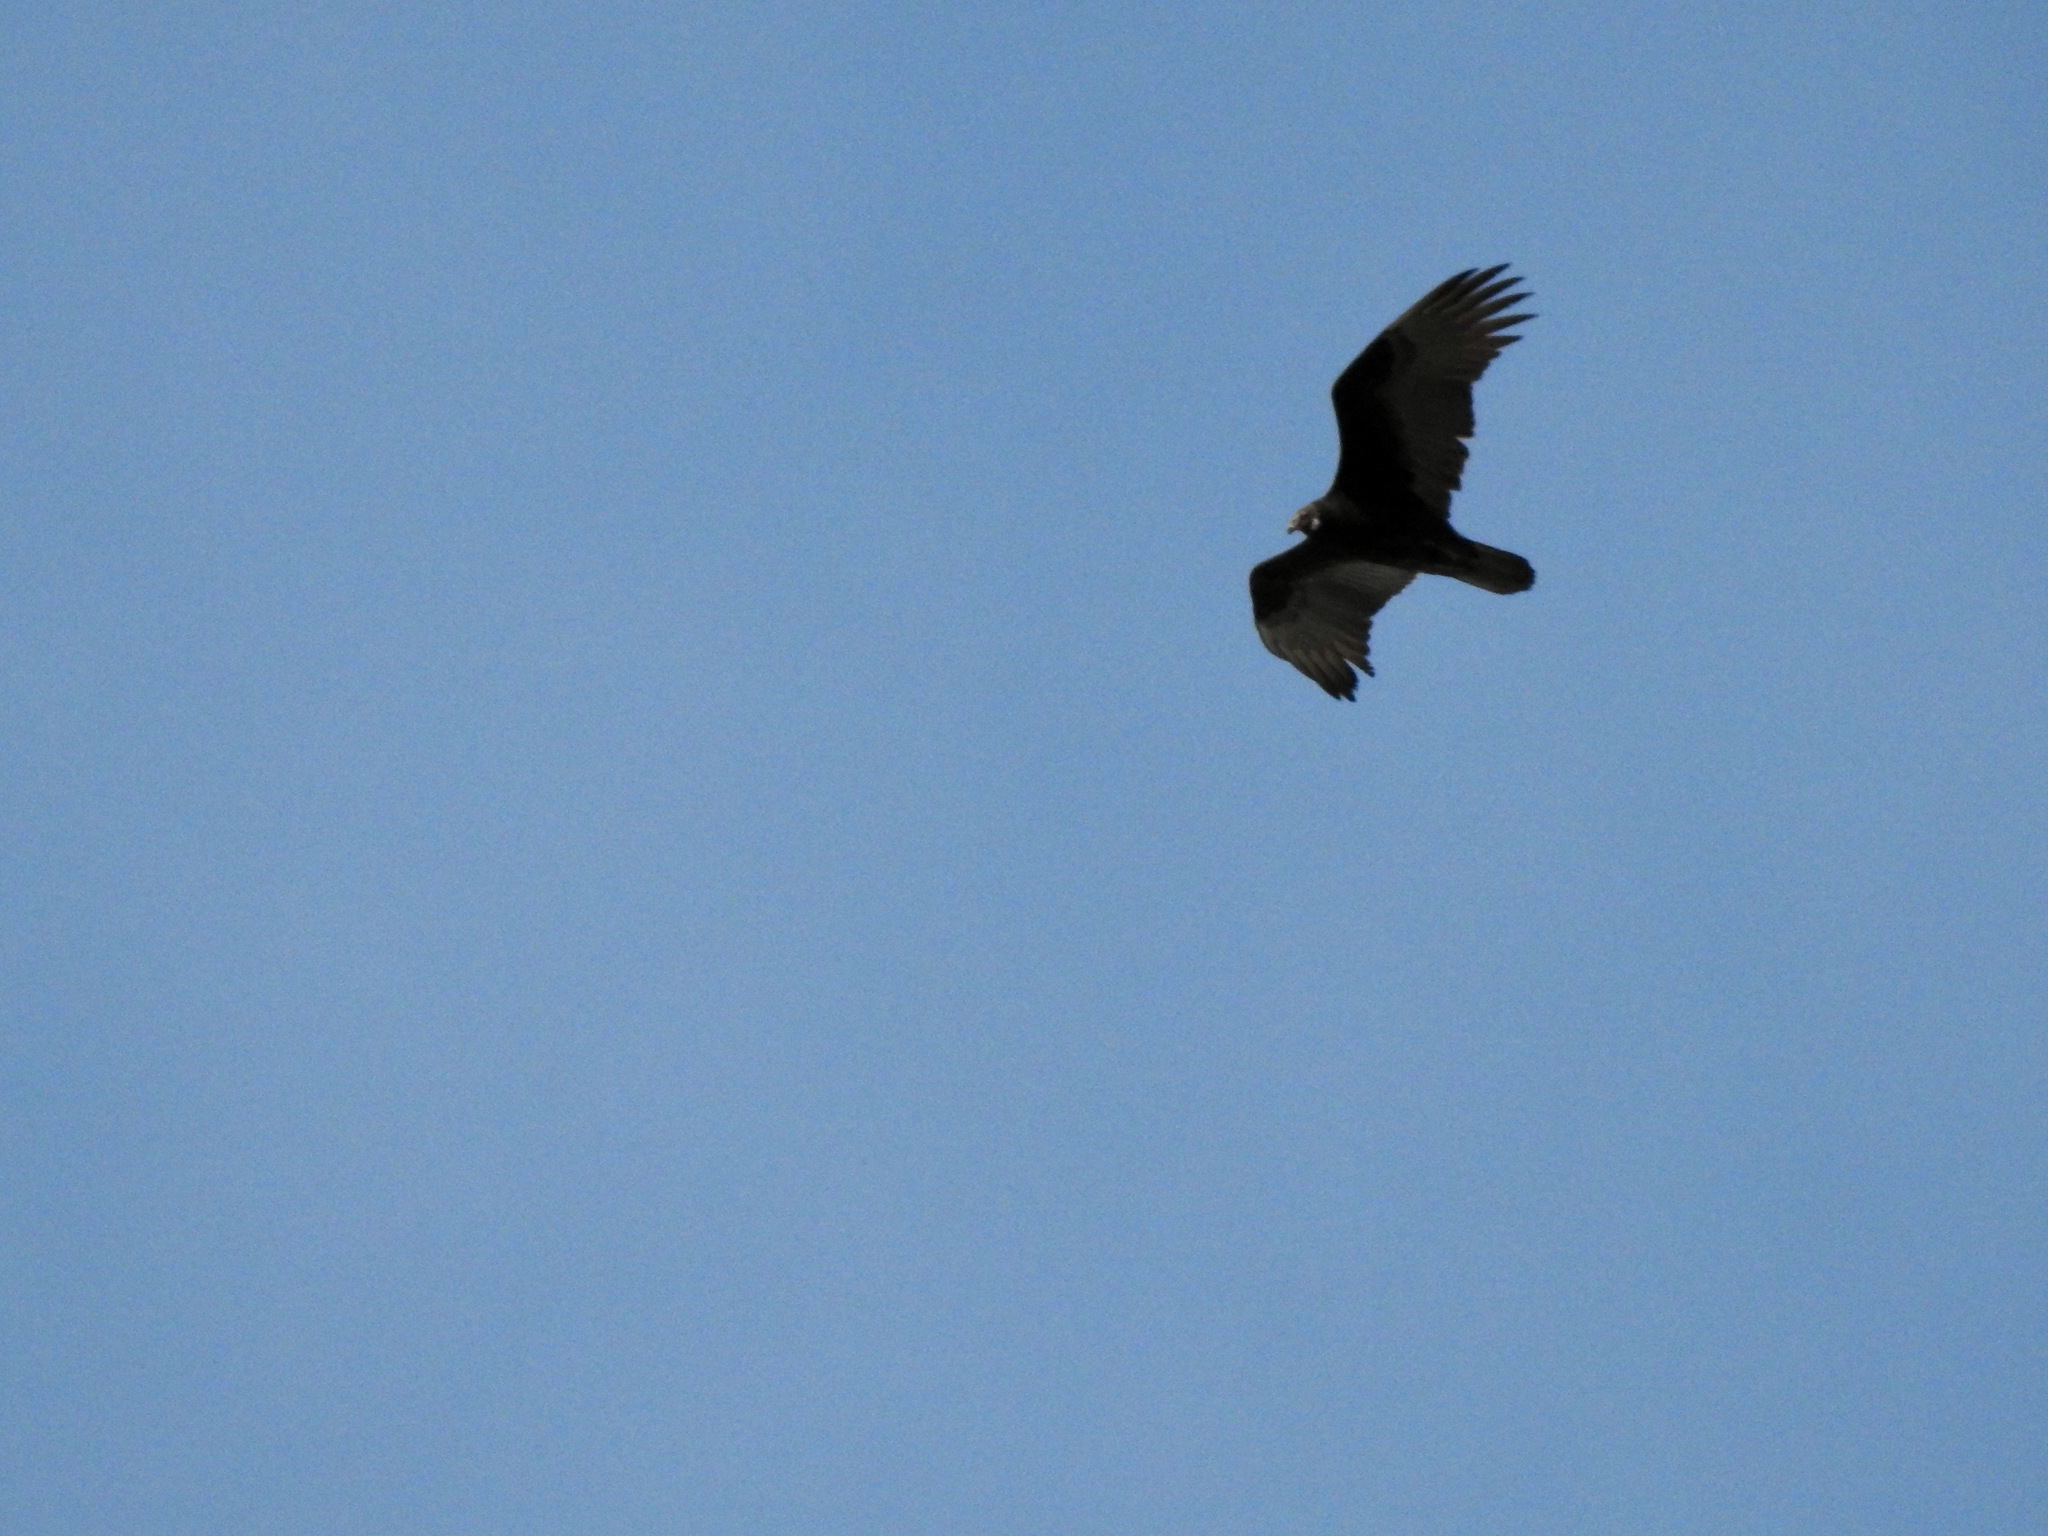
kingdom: Animalia
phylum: Chordata
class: Aves
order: Accipitriformes
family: Cathartidae
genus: Cathartes
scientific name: Cathartes aura
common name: Turkey vulture
